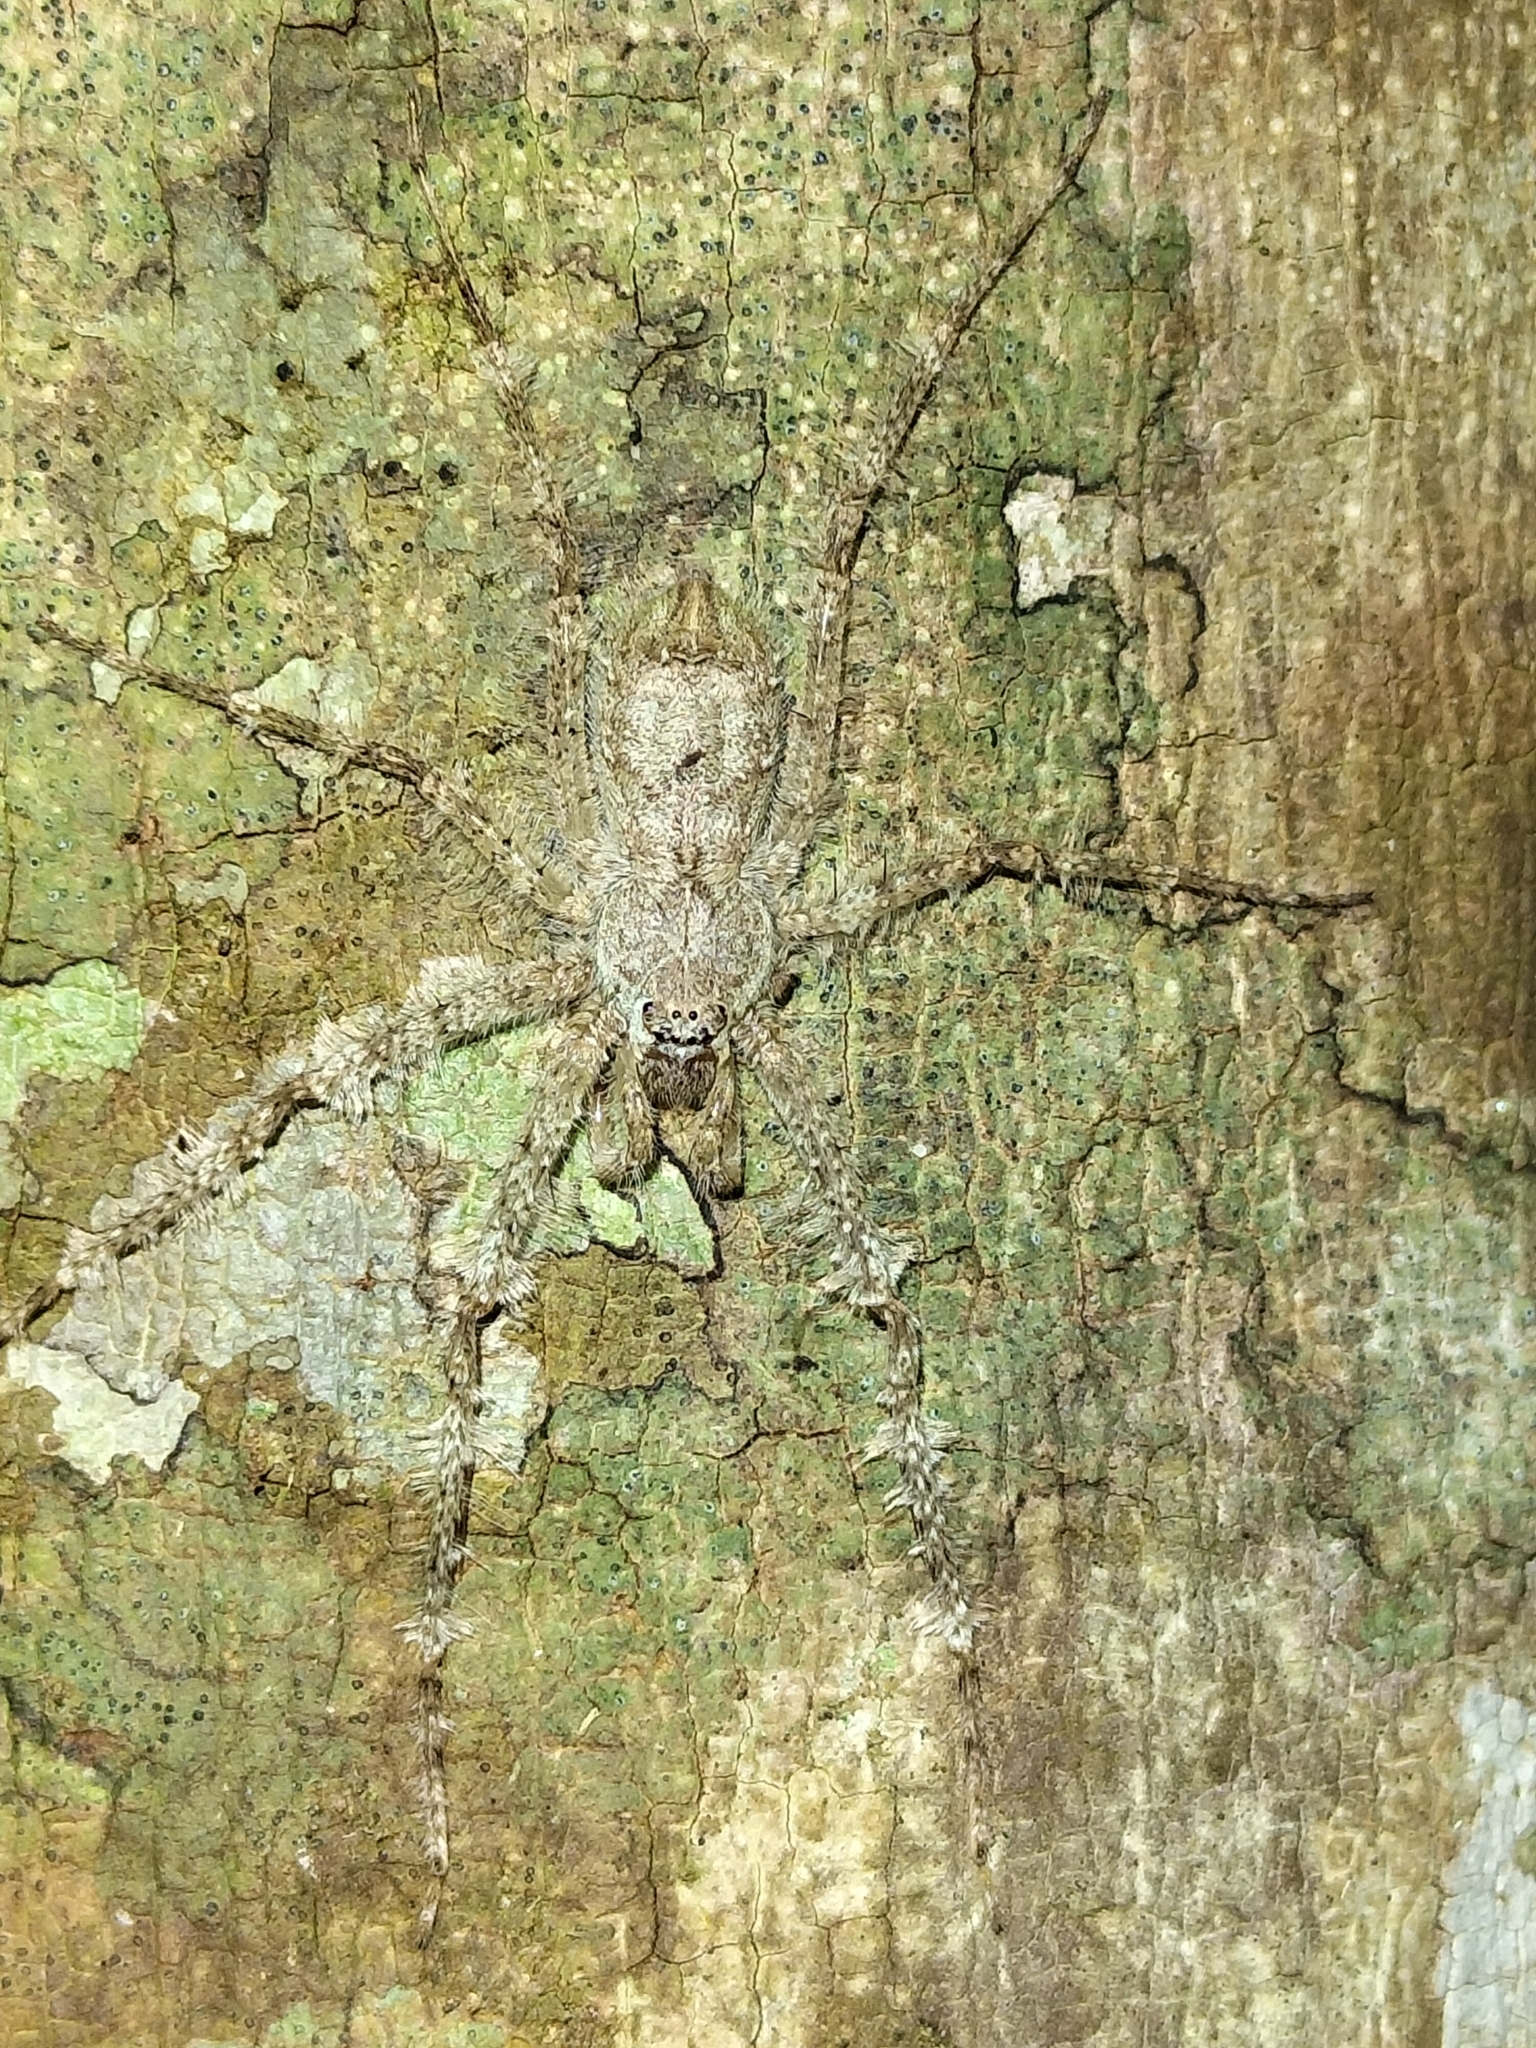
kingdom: Animalia
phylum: Arthropoda
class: Arachnida
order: Araneae
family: Sparassidae
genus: Pandercetes
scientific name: Pandercetes gracilis
